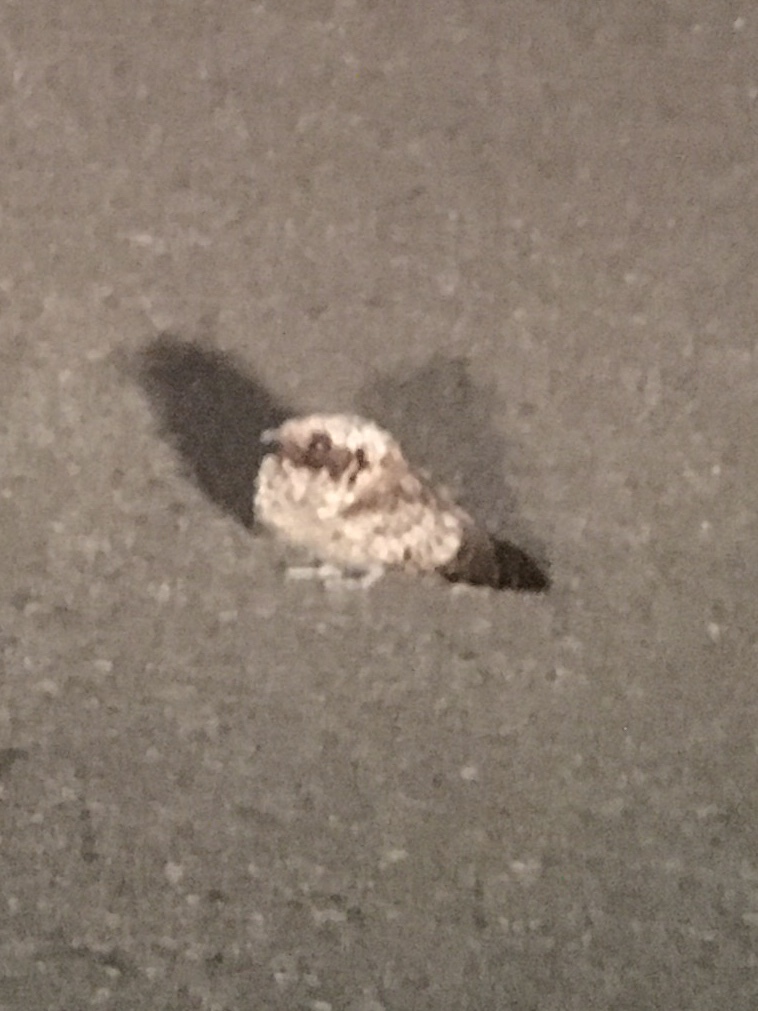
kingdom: Animalia
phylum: Chordata
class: Aves
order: Caprimulgiformes
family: Caprimulgidae
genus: Phalaenoptilus
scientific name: Phalaenoptilus nuttallii
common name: Common poorwill
